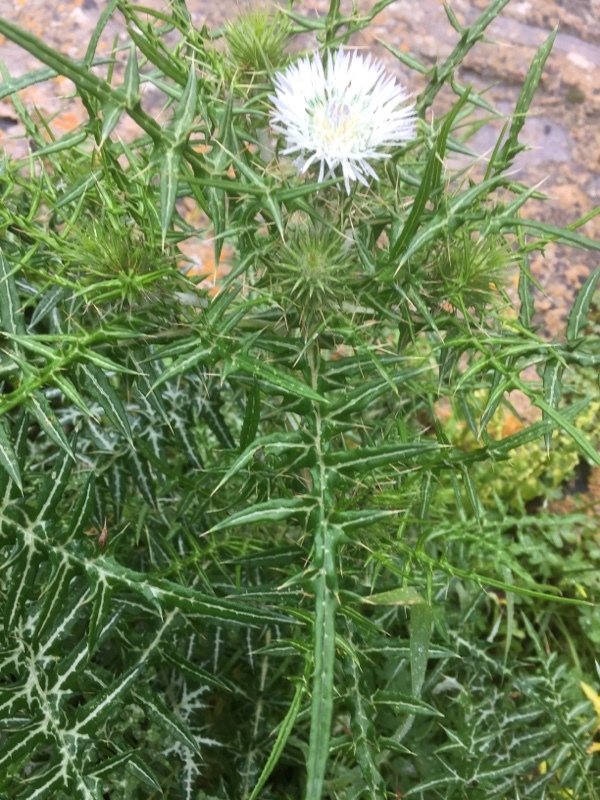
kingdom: Plantae
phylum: Tracheophyta
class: Magnoliopsida
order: Asterales
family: Asteraceae
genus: Galactites
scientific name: Galactites tomentosa
